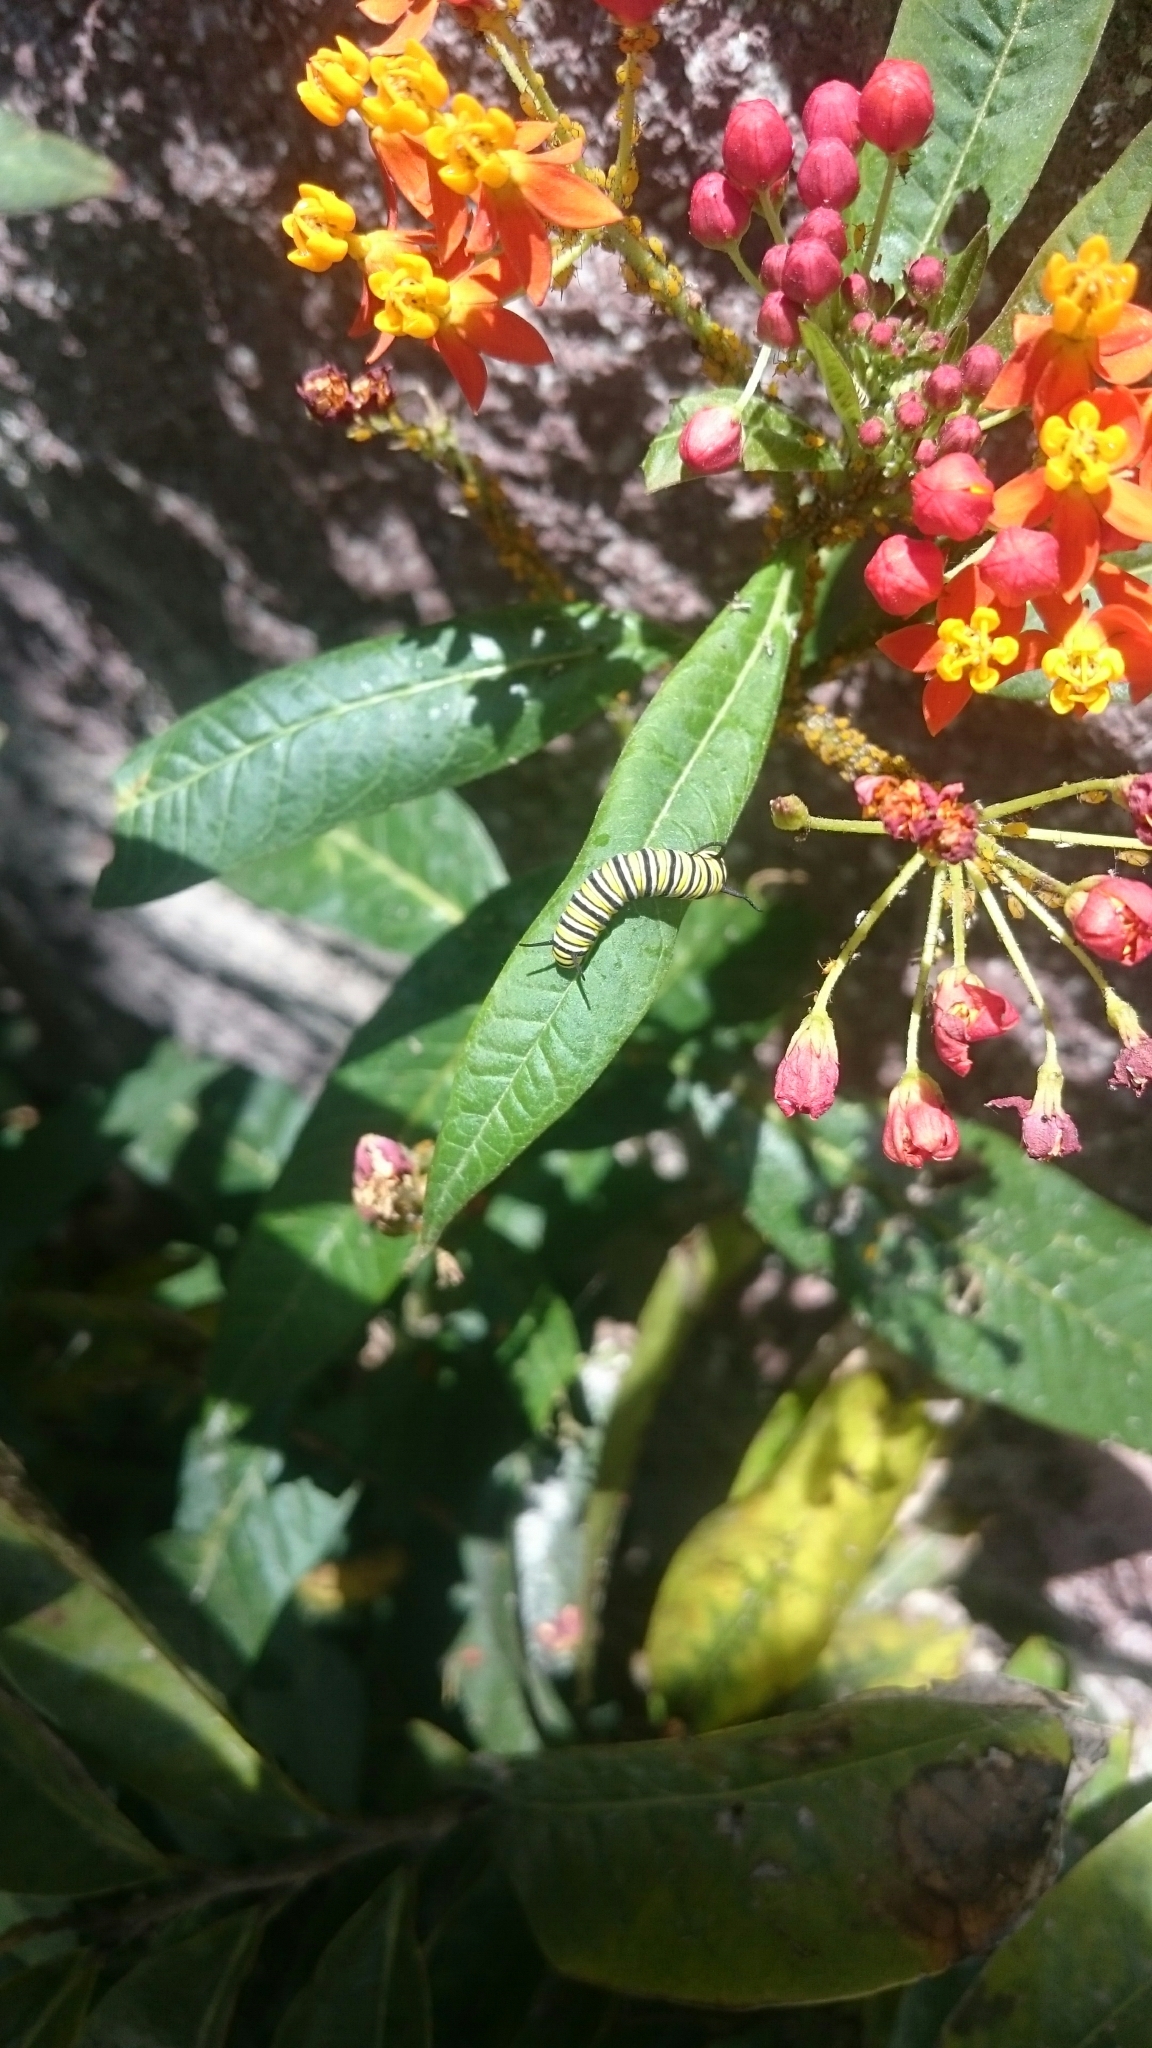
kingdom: Animalia
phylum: Arthropoda
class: Insecta
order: Lepidoptera
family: Nymphalidae
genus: Danaus
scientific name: Danaus plexippus
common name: Monarch
